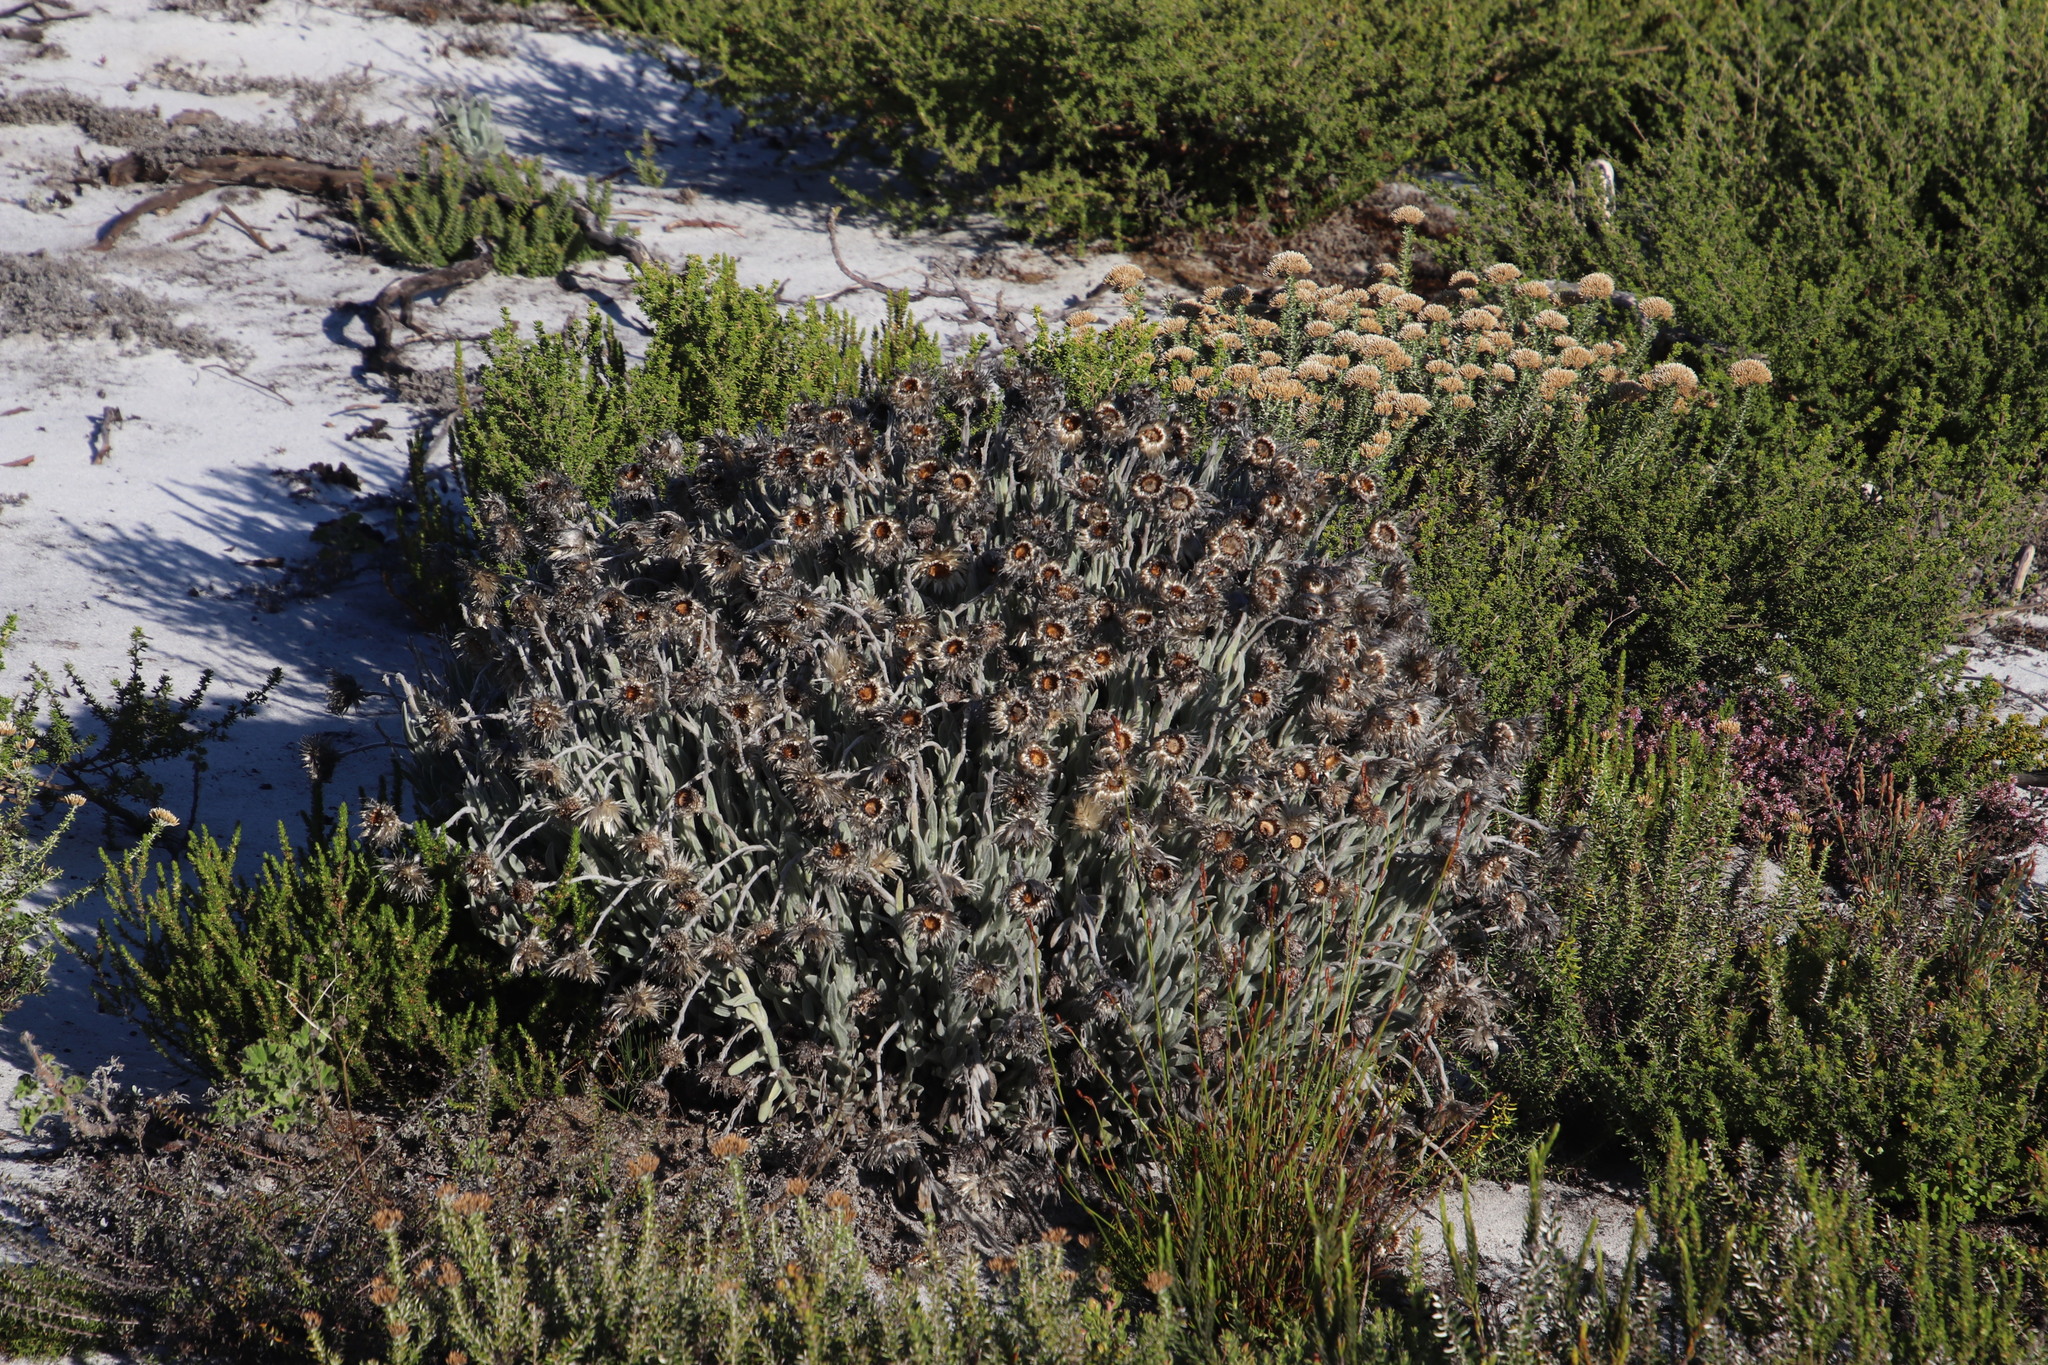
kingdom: Plantae
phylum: Tracheophyta
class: Magnoliopsida
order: Asterales
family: Asteraceae
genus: Syncarpha
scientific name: Syncarpha vestita
